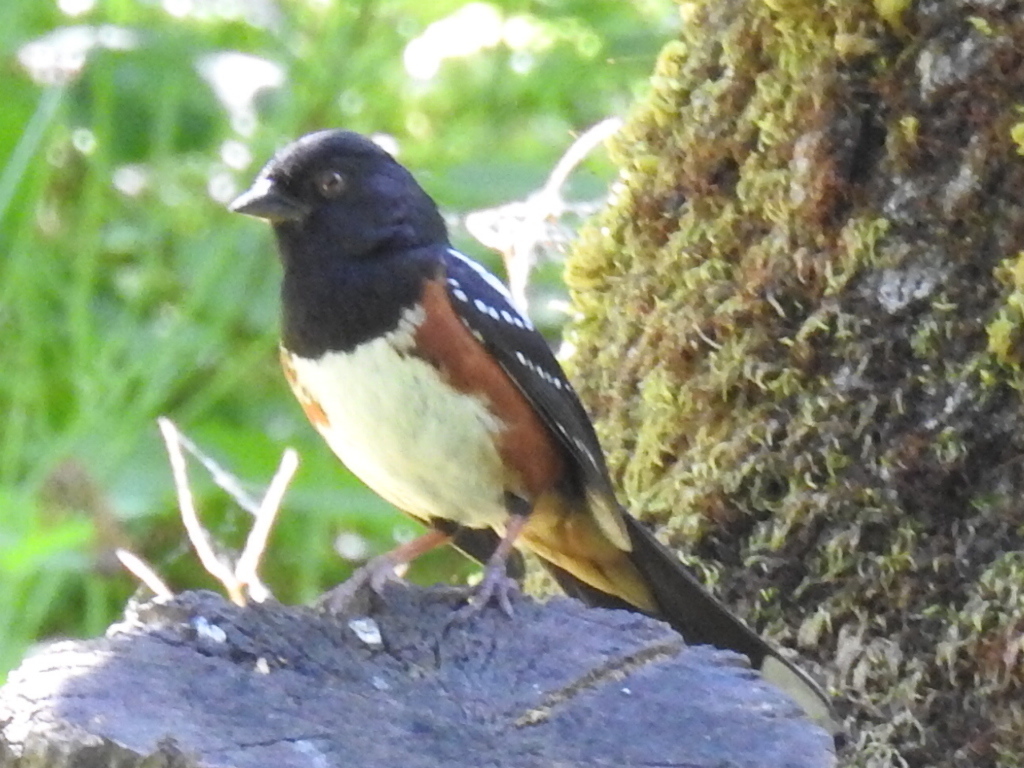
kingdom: Animalia
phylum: Chordata
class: Aves
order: Passeriformes
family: Passerellidae
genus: Pipilo
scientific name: Pipilo maculatus
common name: Spotted towhee
